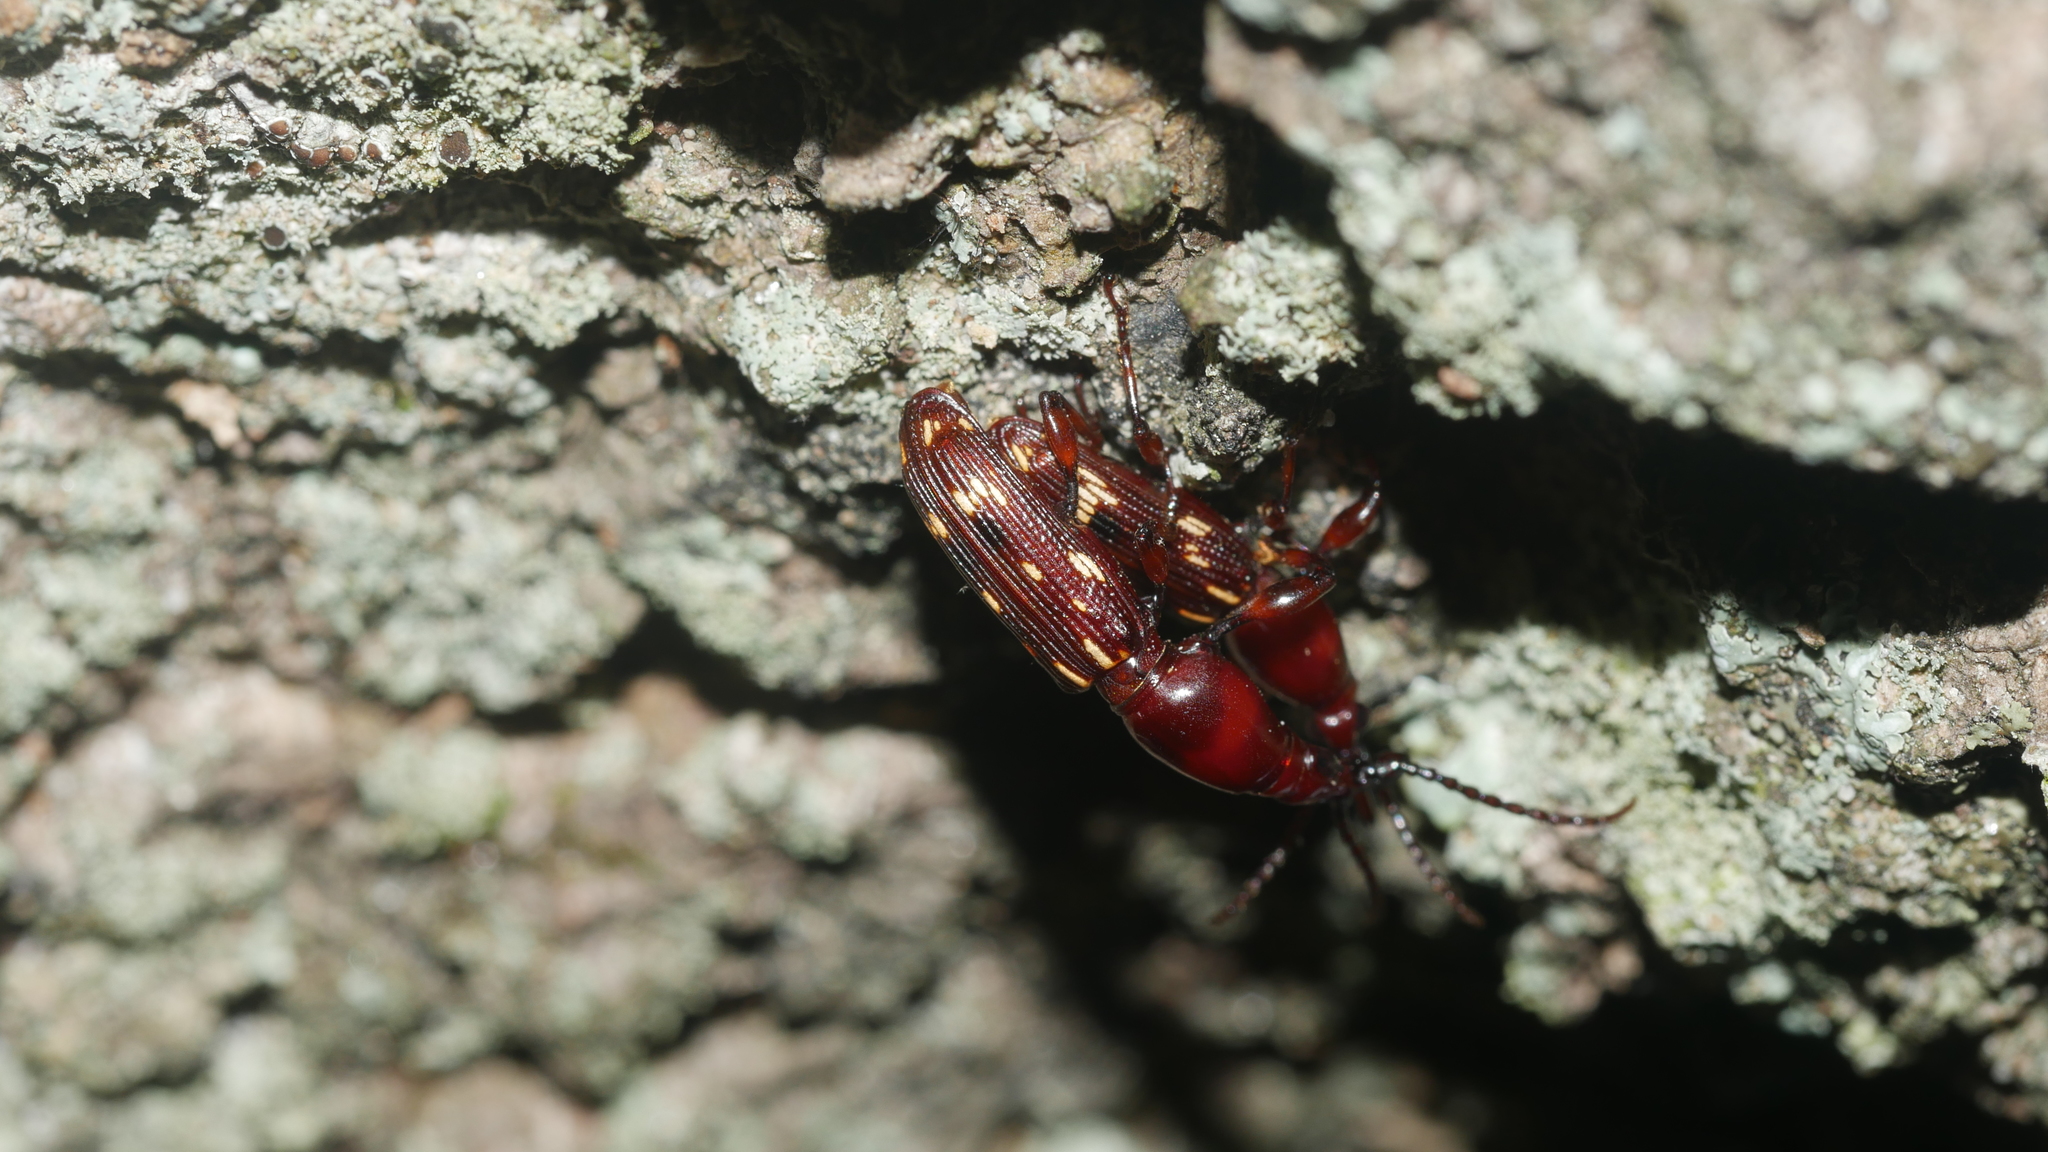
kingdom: Animalia
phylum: Arthropoda
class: Insecta
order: Coleoptera
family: Brentidae
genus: Arrenodes
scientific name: Arrenodes minutus
